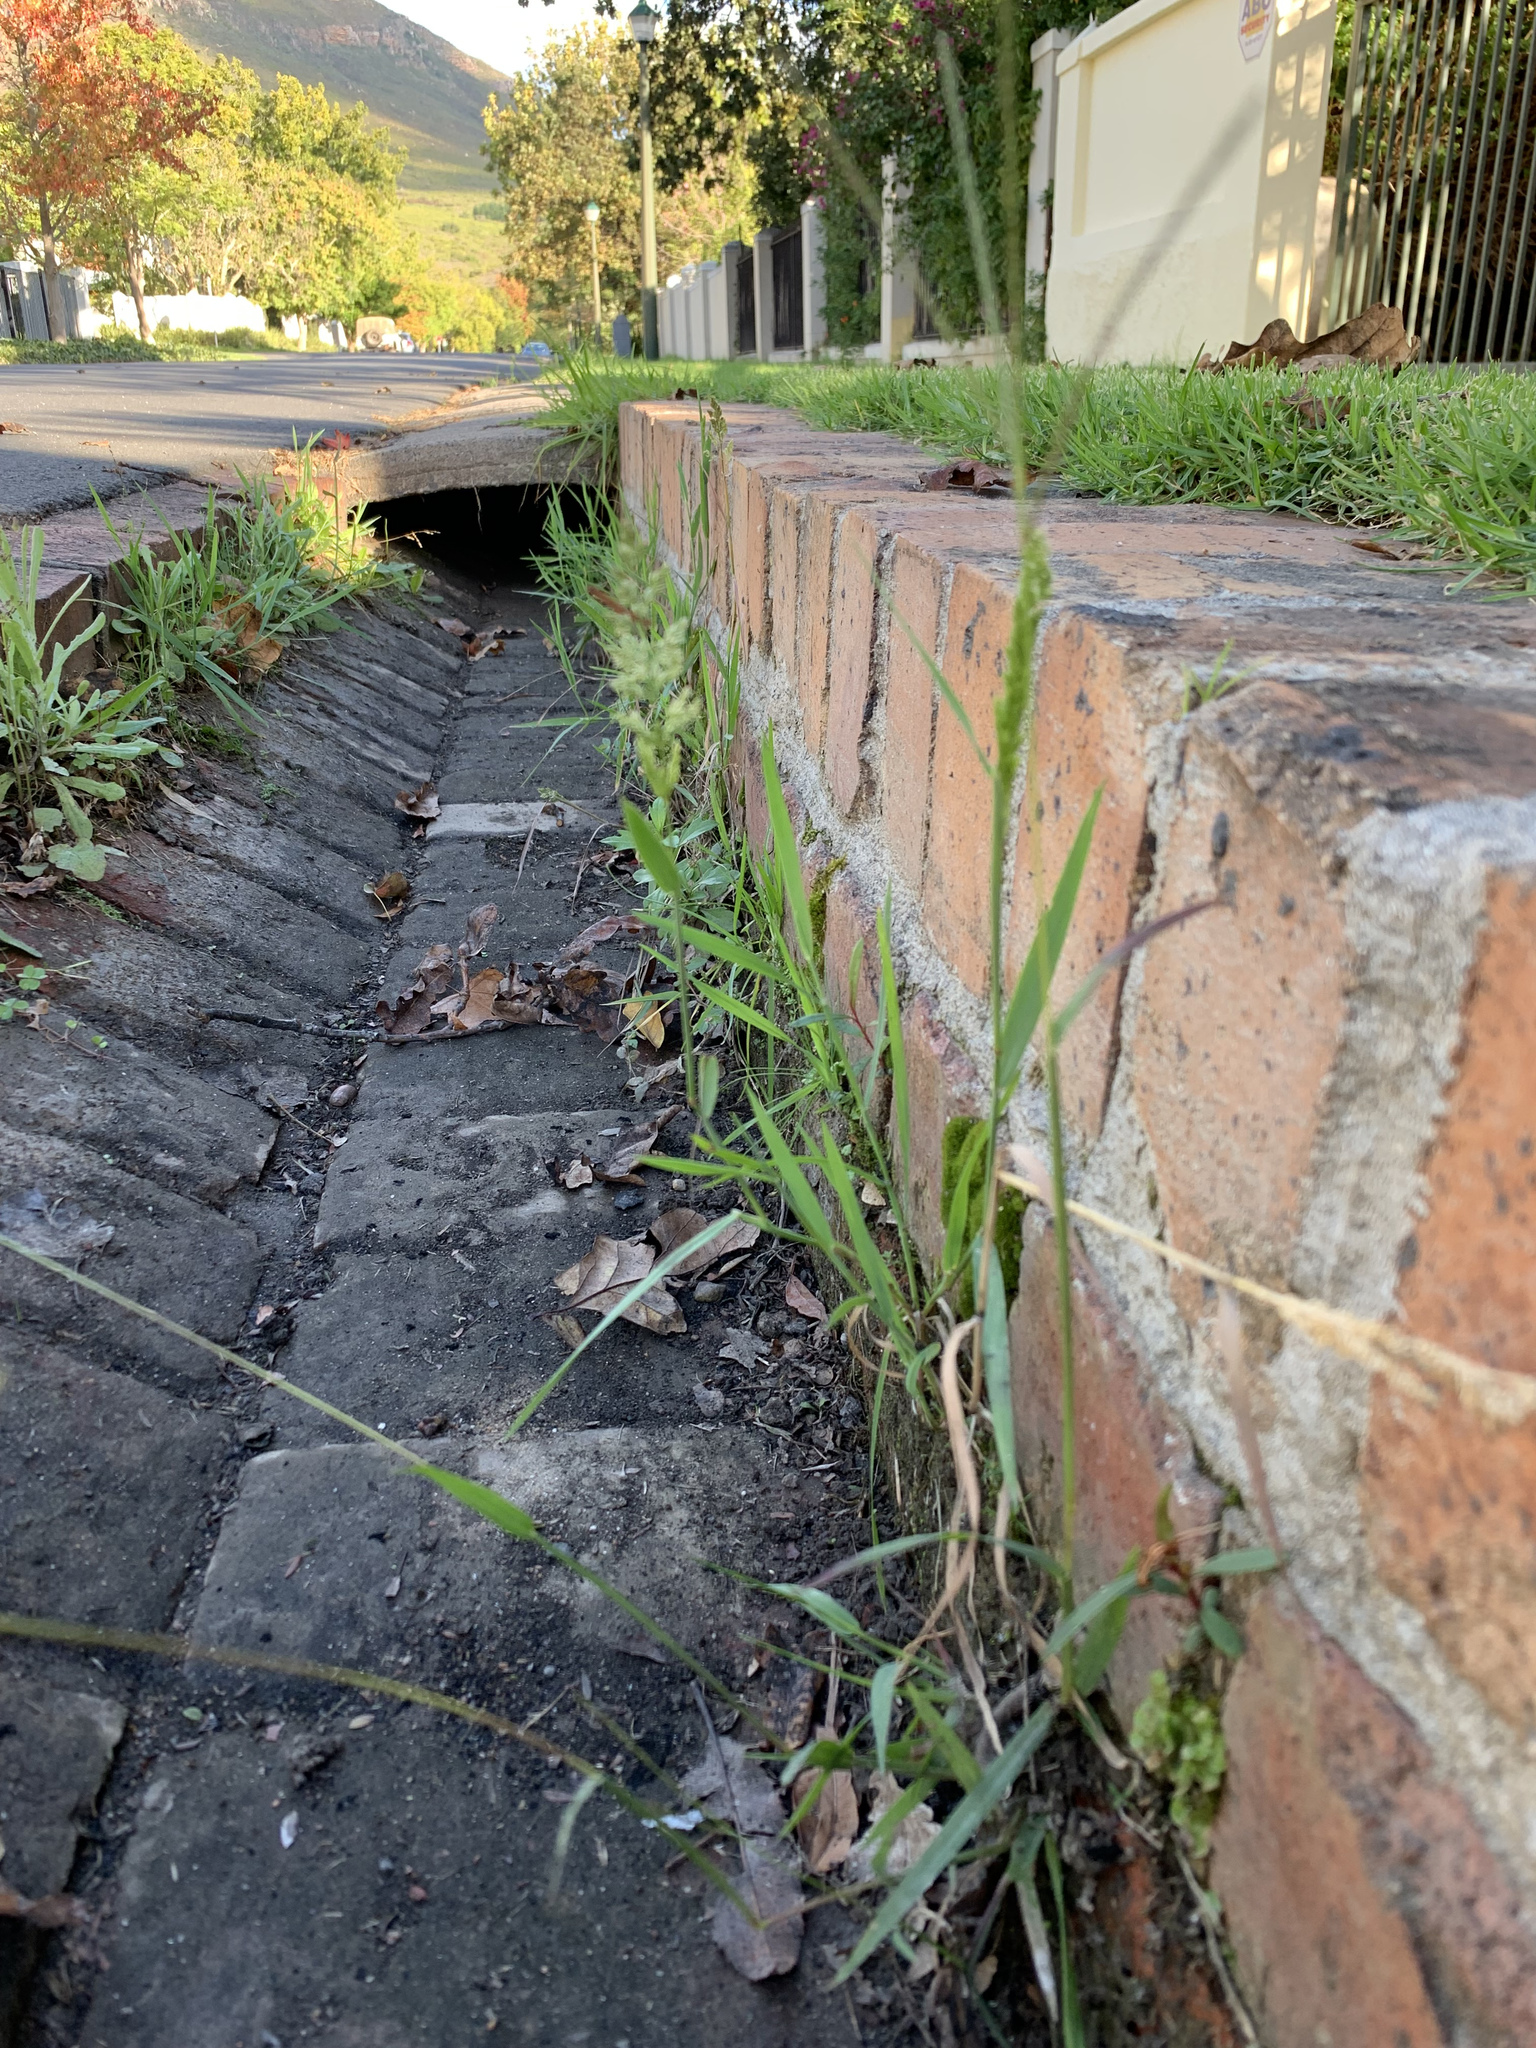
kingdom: Plantae
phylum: Tracheophyta
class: Liliopsida
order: Poales
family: Poaceae
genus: Polypogon
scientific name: Polypogon viridis
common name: Water bent
